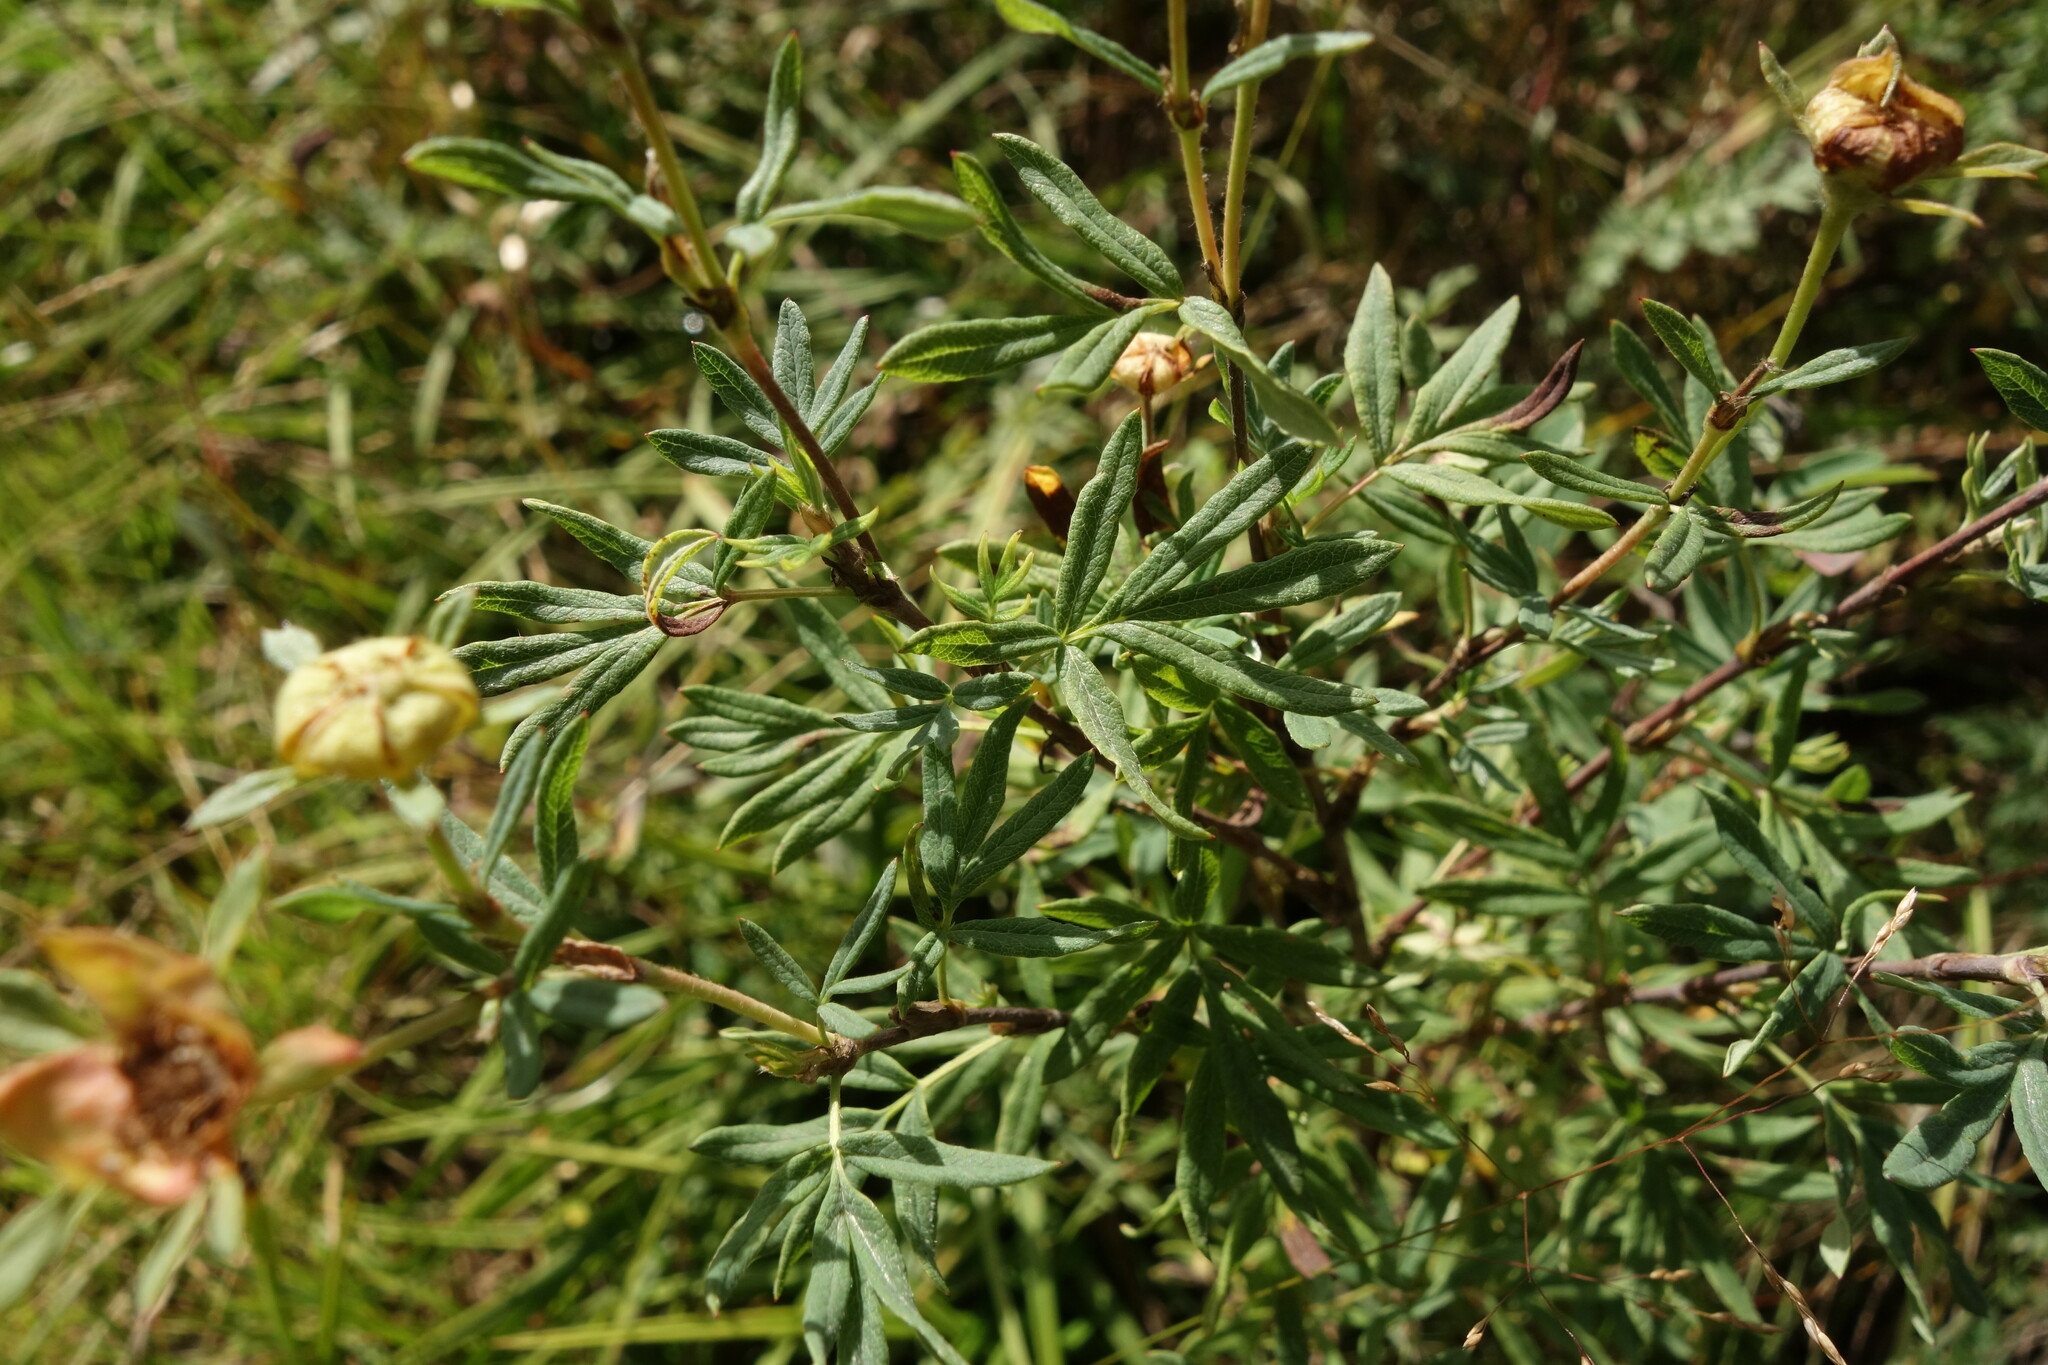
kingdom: Plantae
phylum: Tracheophyta
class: Magnoliopsida
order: Rosales
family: Rosaceae
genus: Dasiphora
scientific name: Dasiphora fruticosa
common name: Shrubby cinquefoil
